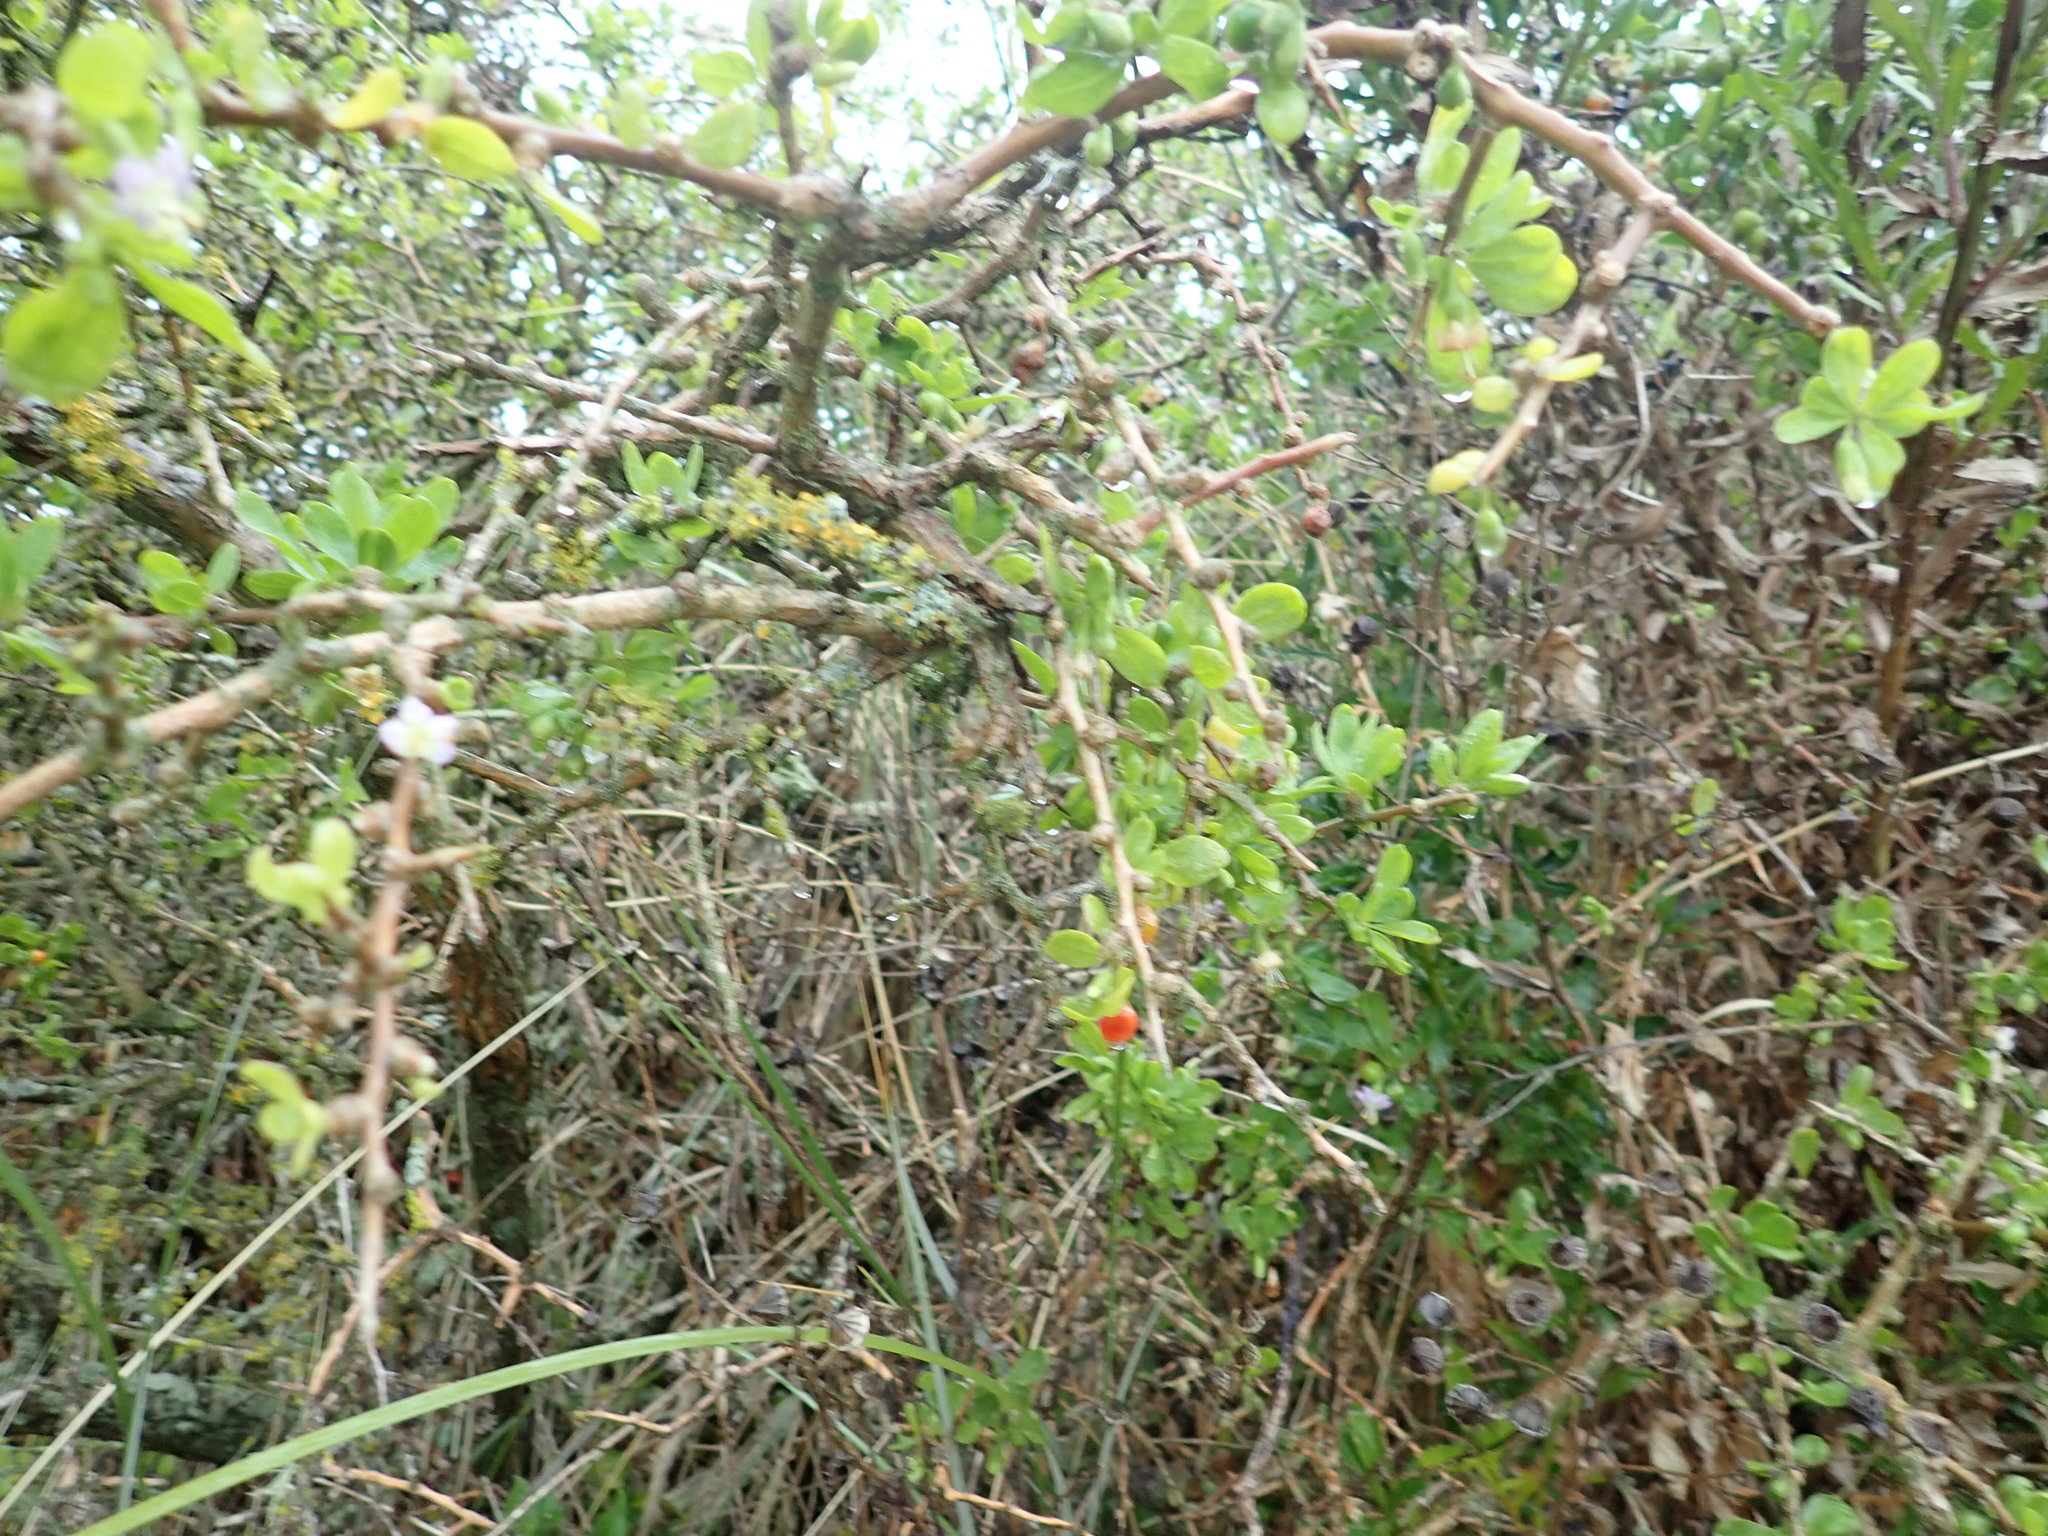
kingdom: Plantae
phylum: Tracheophyta
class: Magnoliopsida
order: Solanales
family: Solanaceae
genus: Lycium
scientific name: Lycium ferocissimum
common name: African boxthorn
